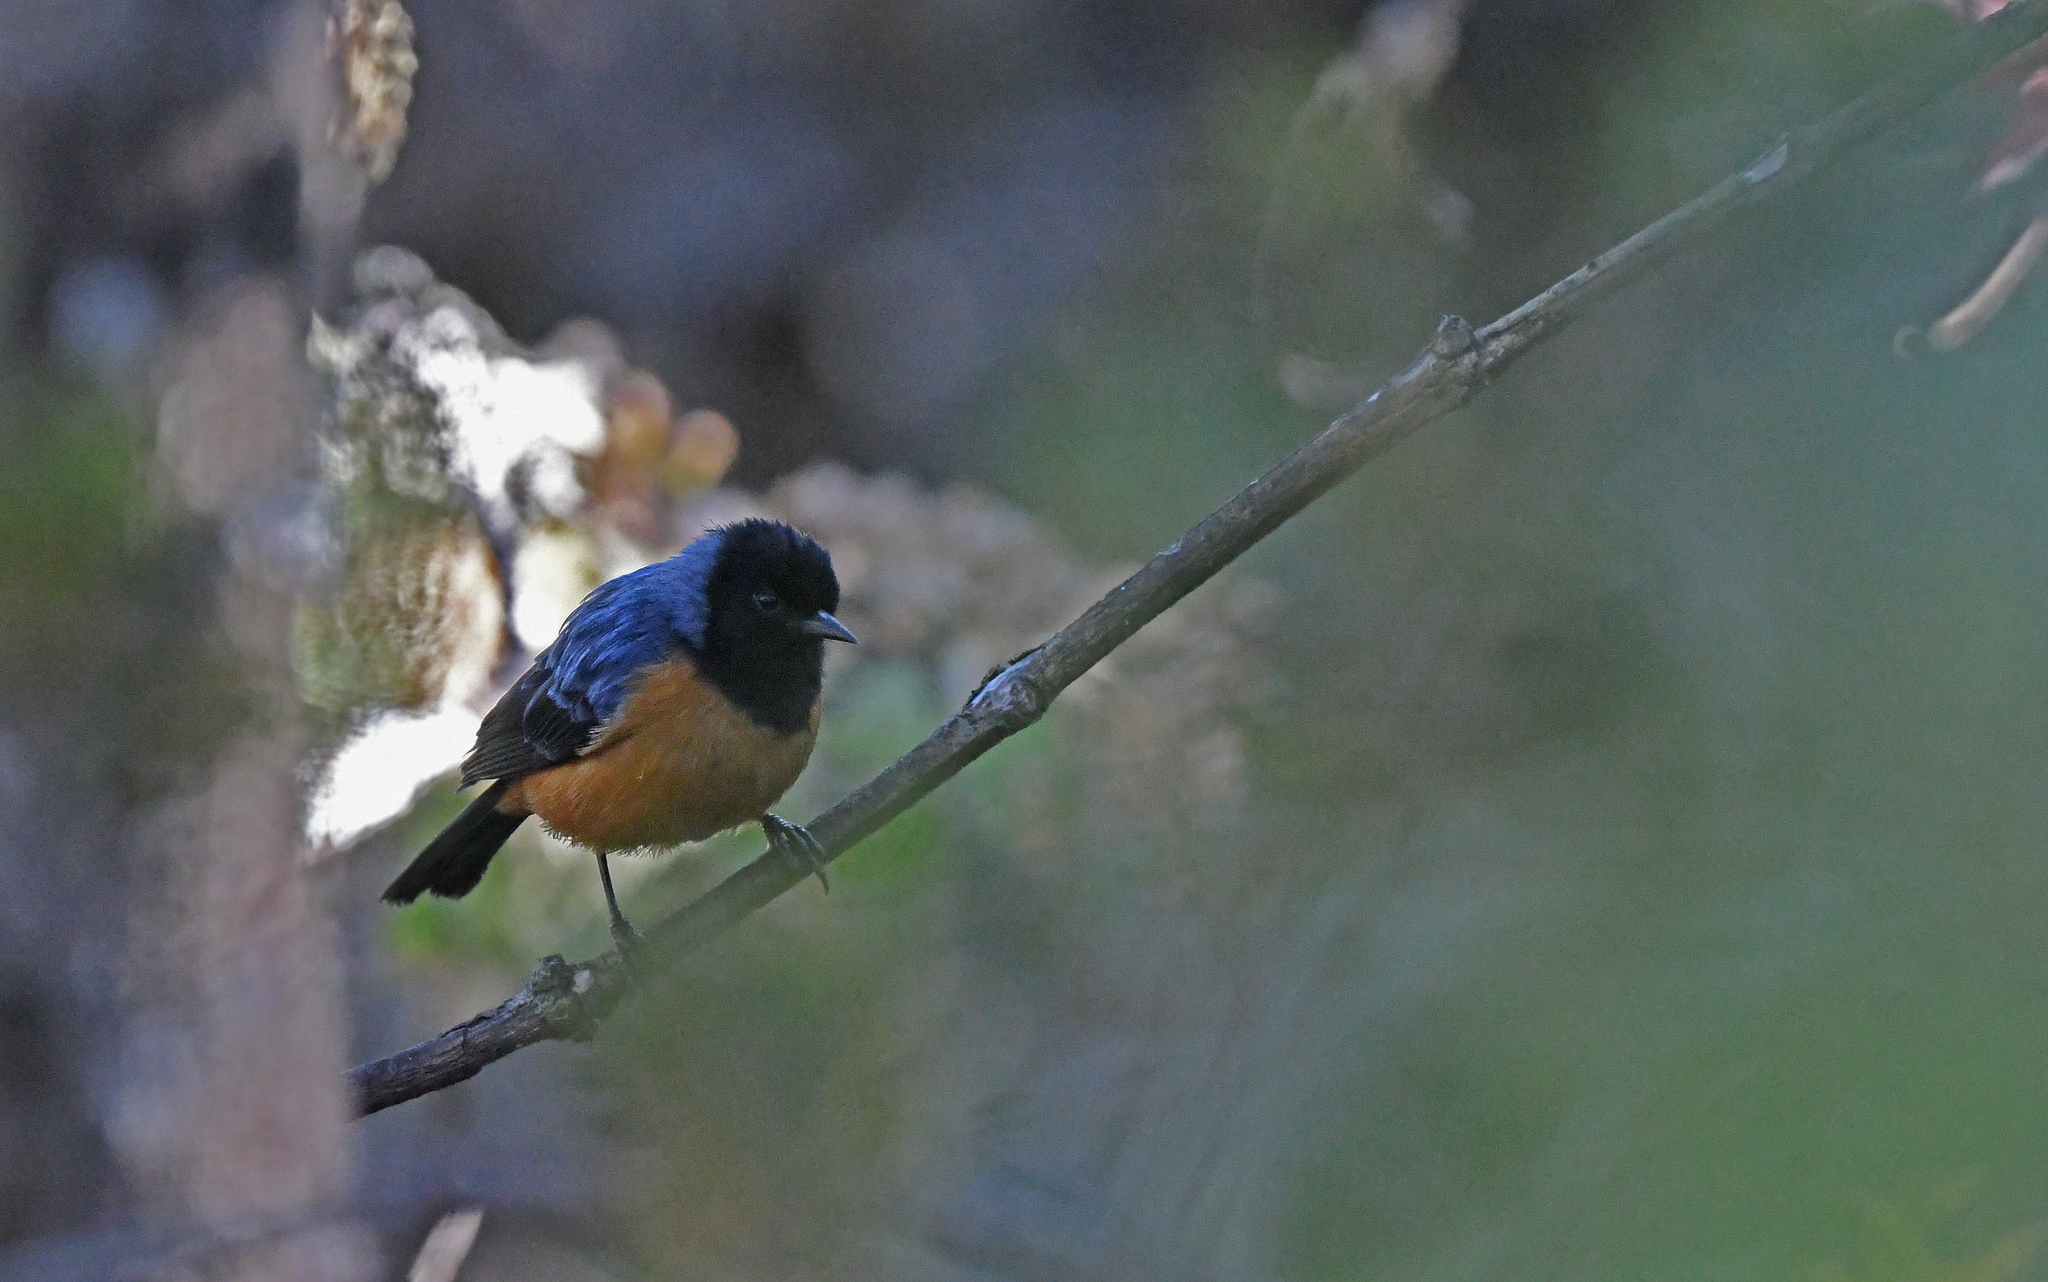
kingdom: Animalia
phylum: Chordata
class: Aves
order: Passeriformes
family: Thraupidae
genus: Conirostrum
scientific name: Conirostrum sitticolor
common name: Blue-backed conebill
